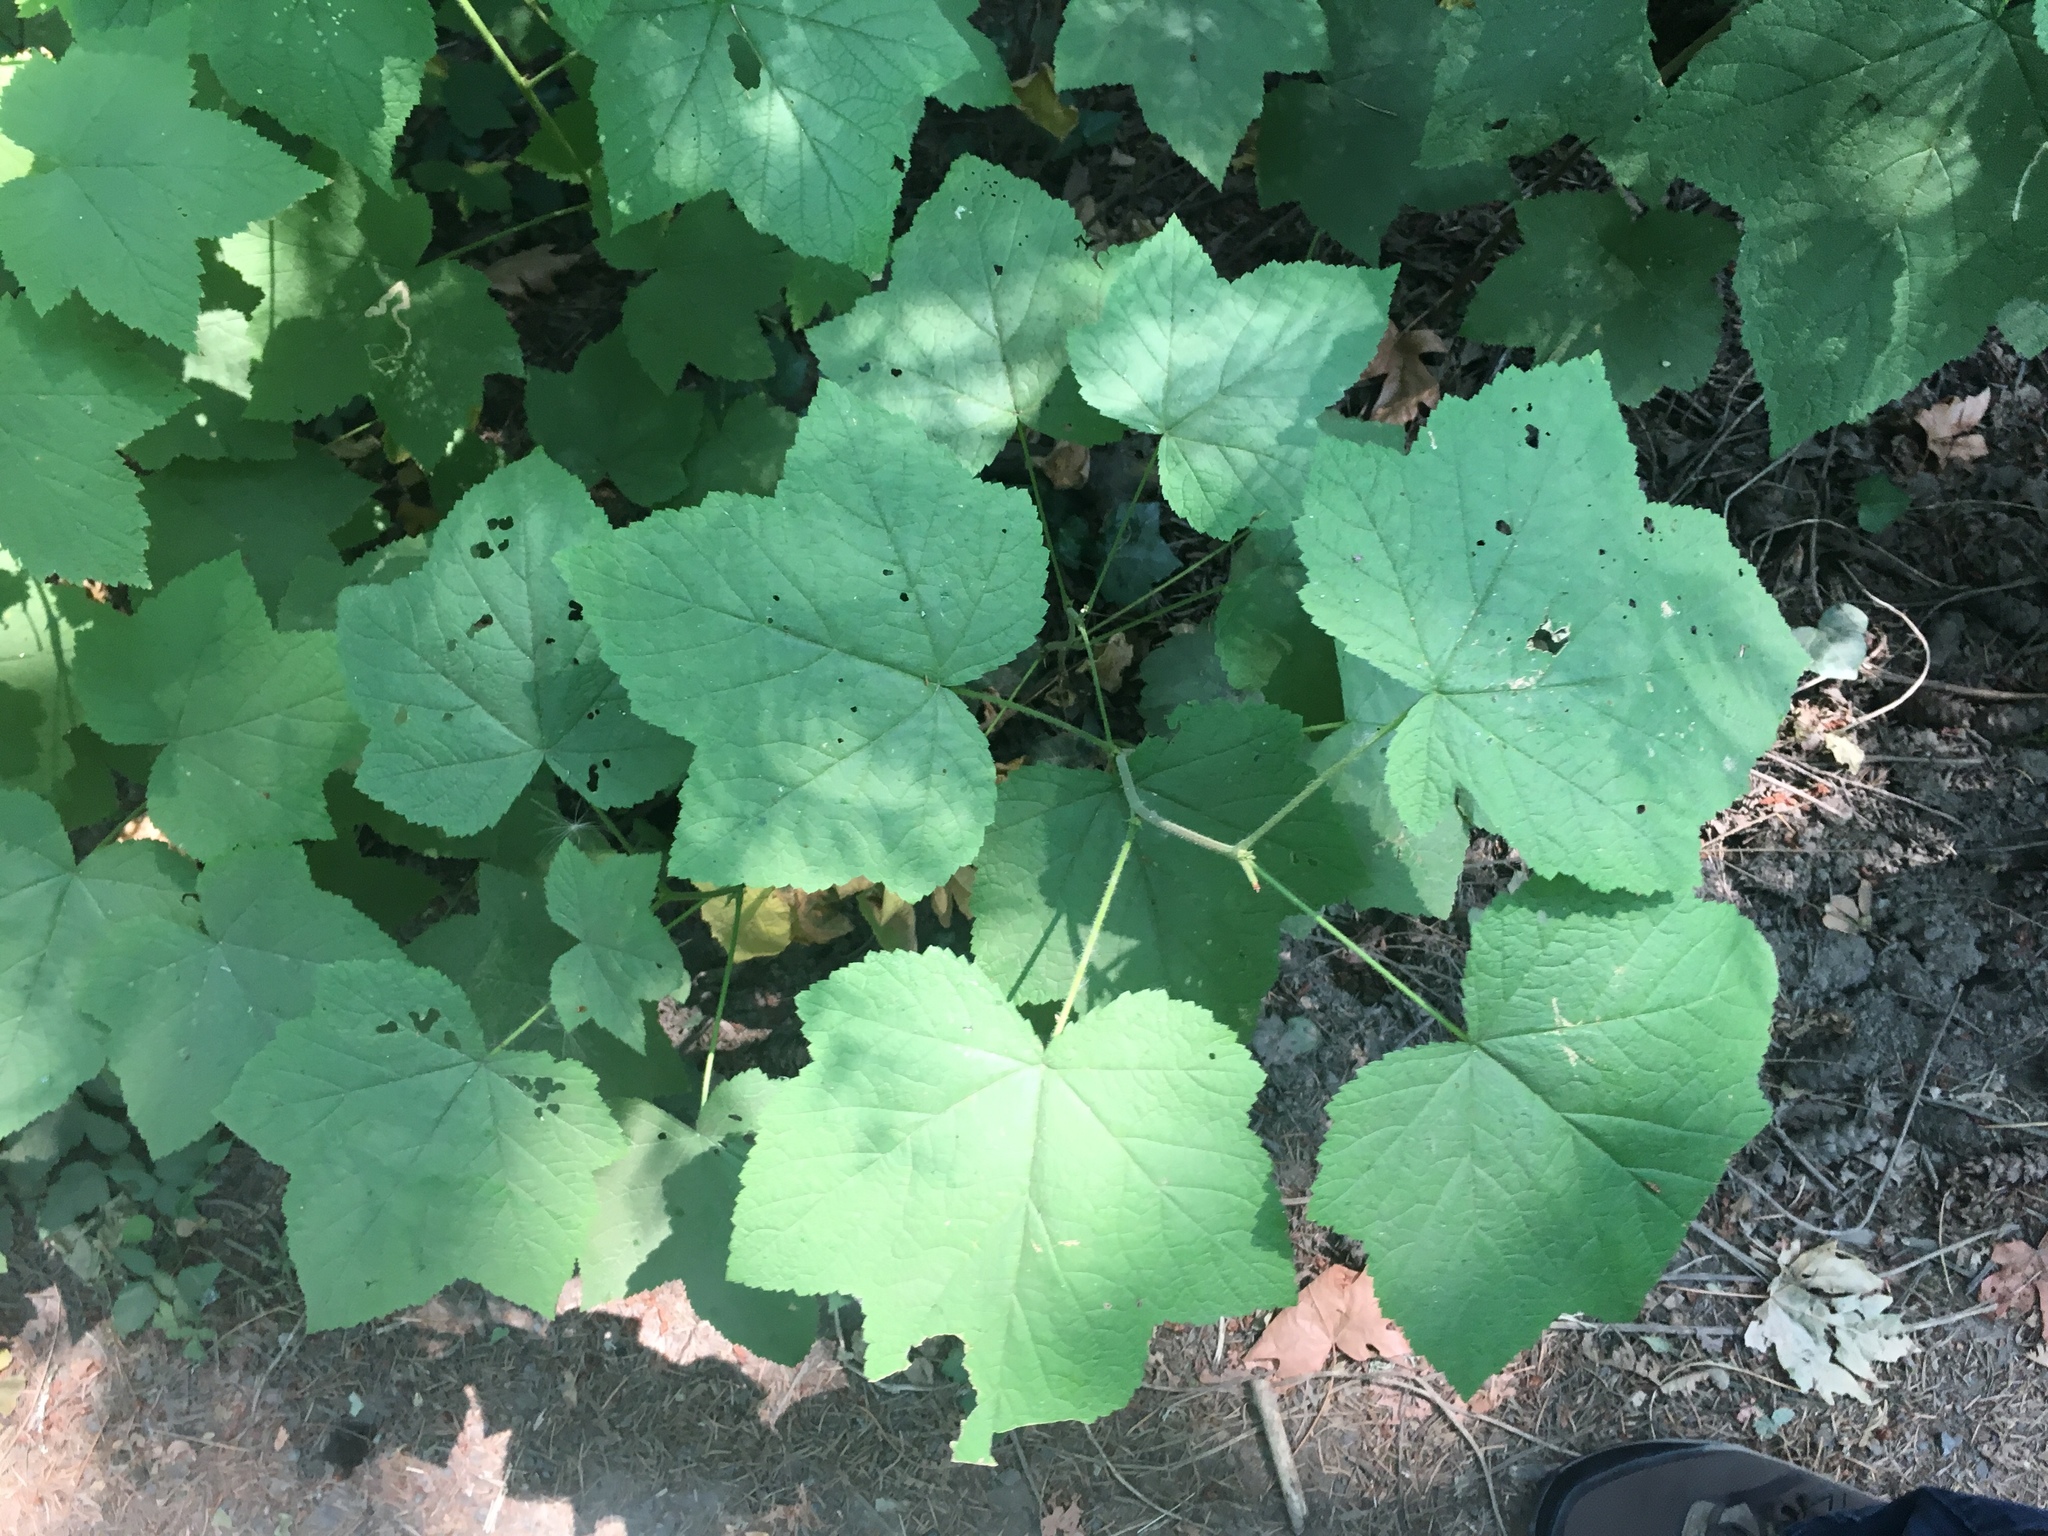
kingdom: Plantae
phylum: Tracheophyta
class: Magnoliopsida
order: Rosales
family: Rosaceae
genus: Rubus
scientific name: Rubus parviflorus
